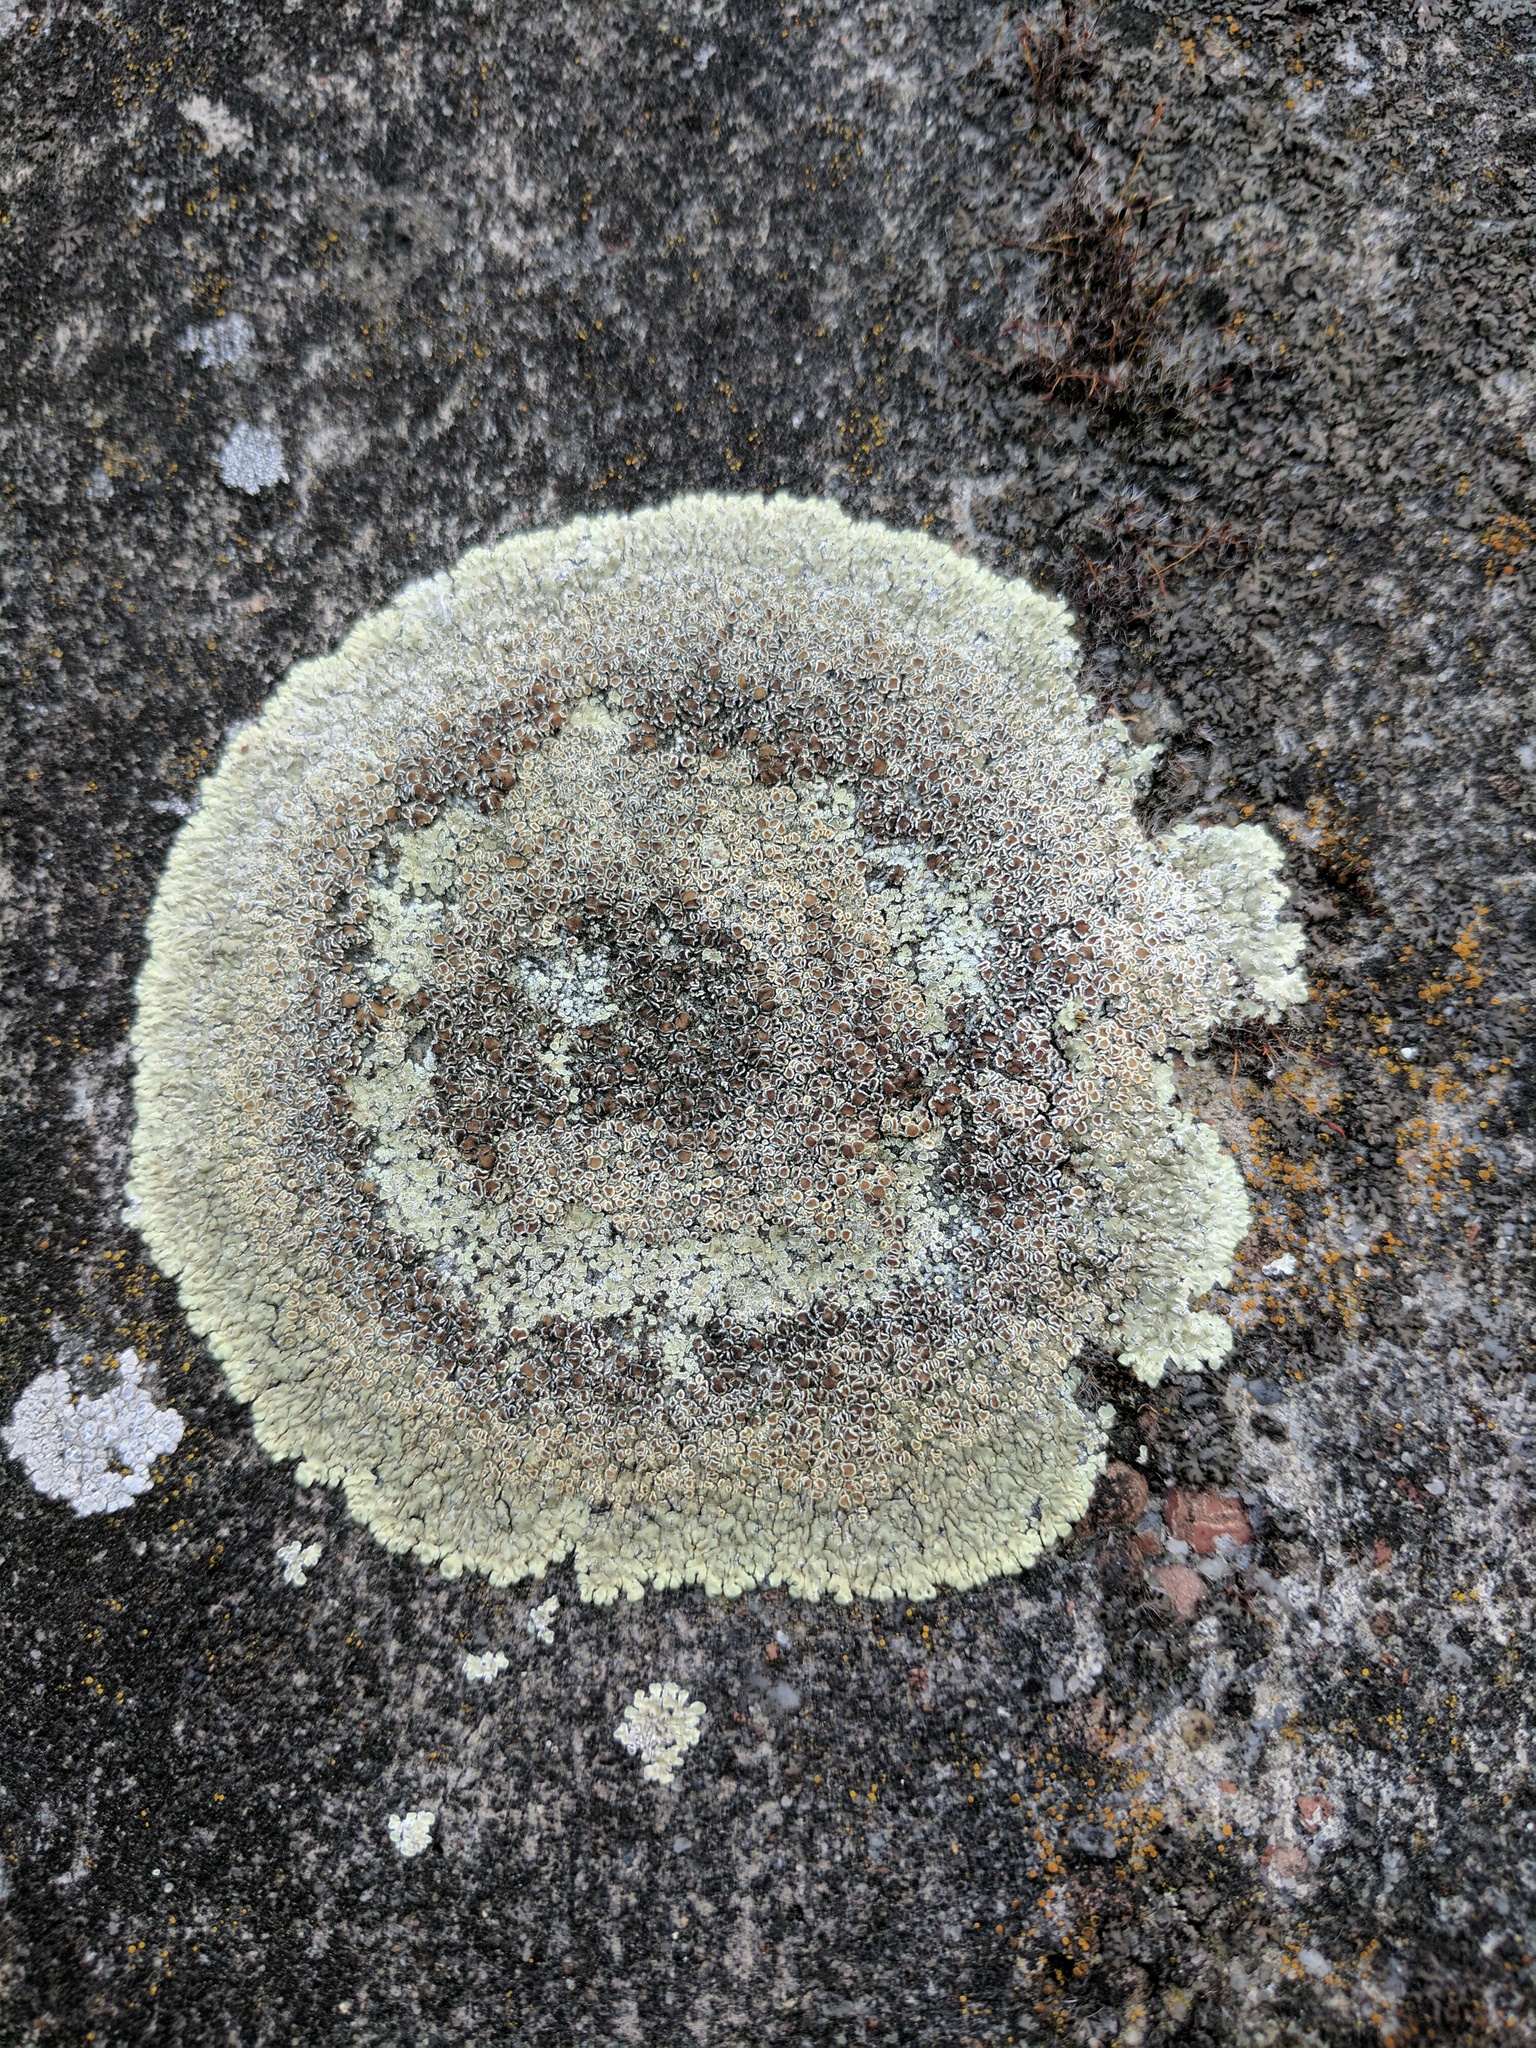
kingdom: Fungi
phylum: Ascomycota
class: Lecanoromycetes
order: Lecanorales
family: Lecanoraceae
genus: Protoparmeliopsis
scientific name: Protoparmeliopsis muralis
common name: Stonewall rim lichen
